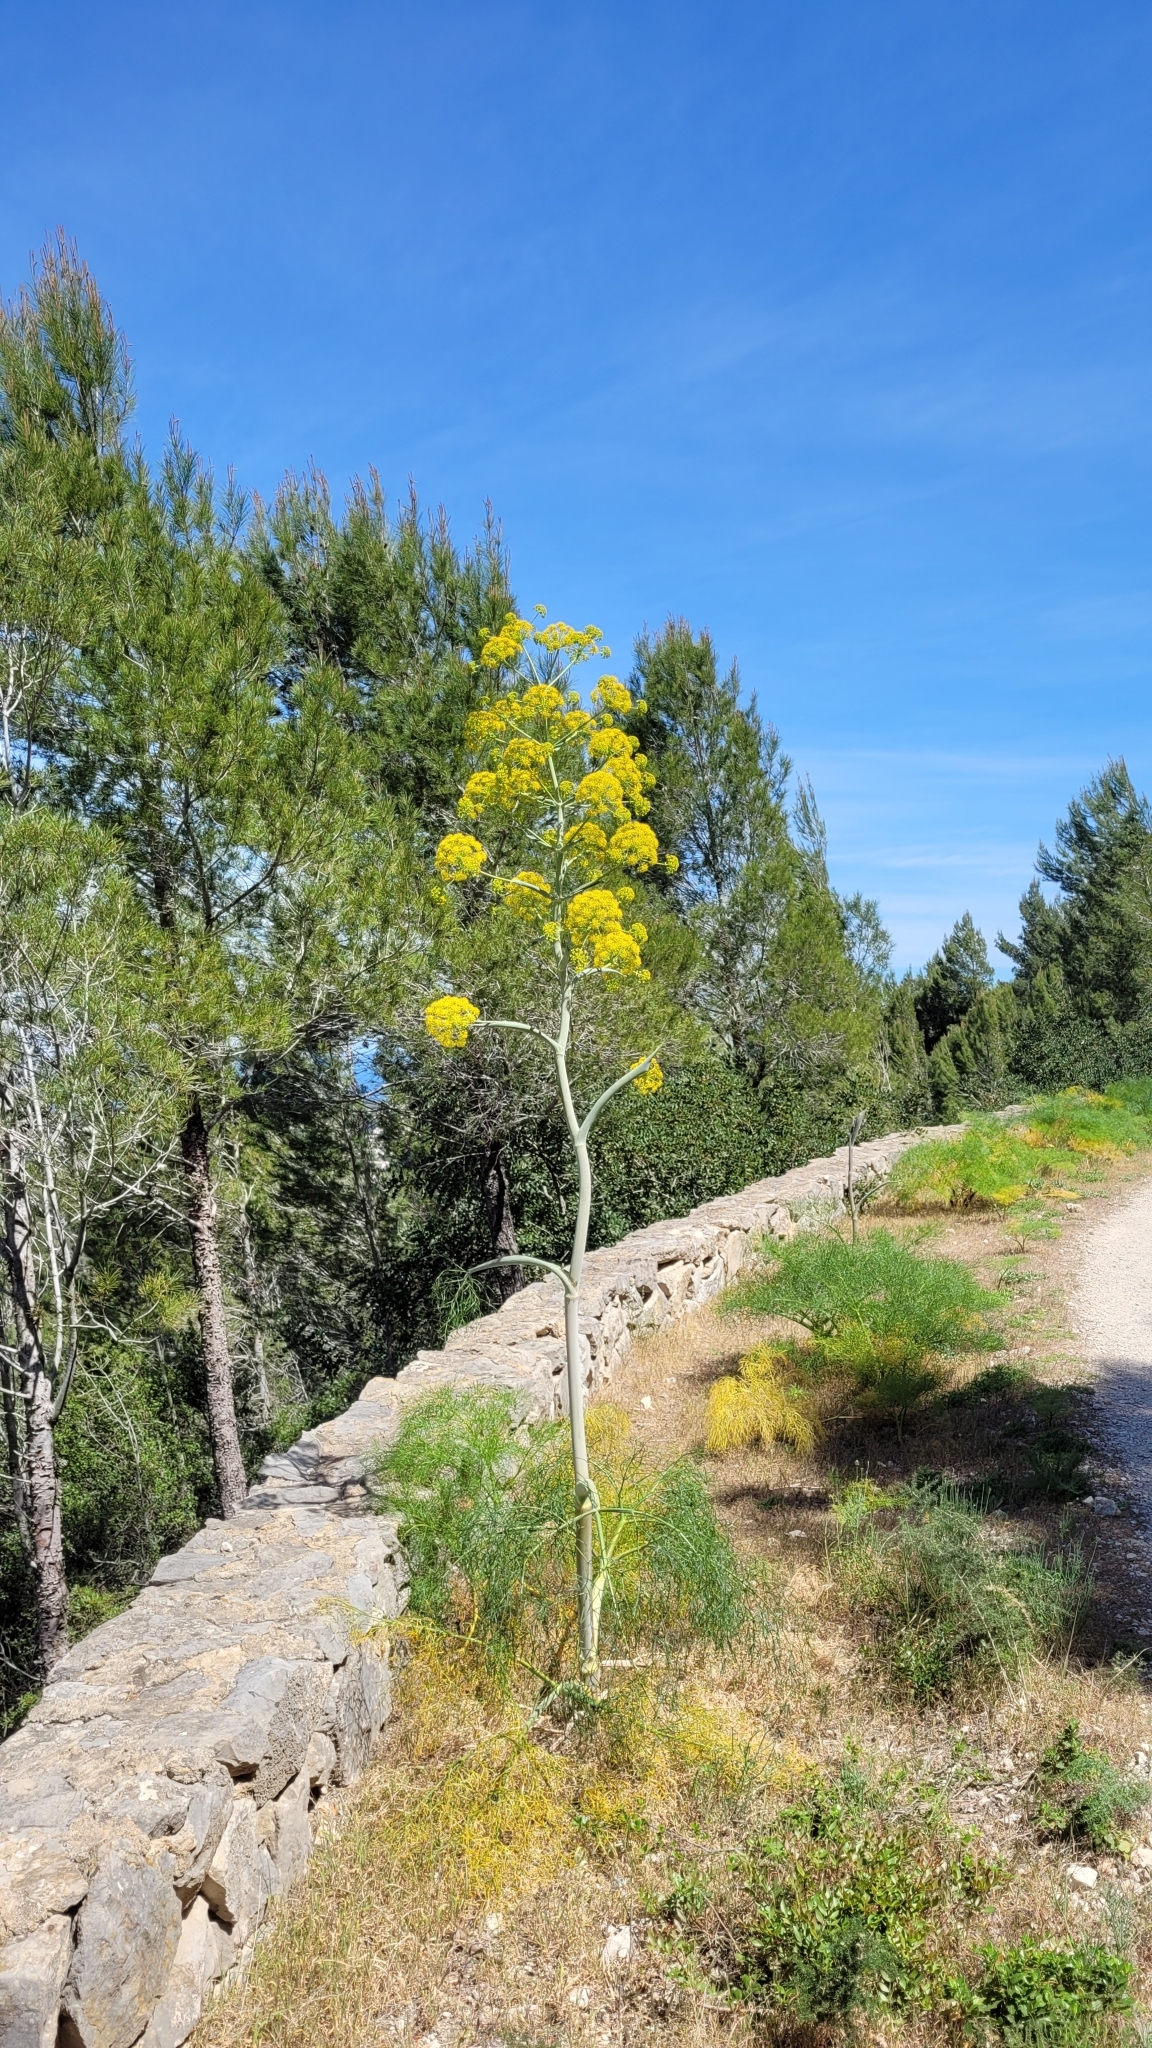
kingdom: Plantae
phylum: Tracheophyta
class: Magnoliopsida
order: Apiales
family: Apiaceae
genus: Ferula
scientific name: Ferula communis
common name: Giant fennel
